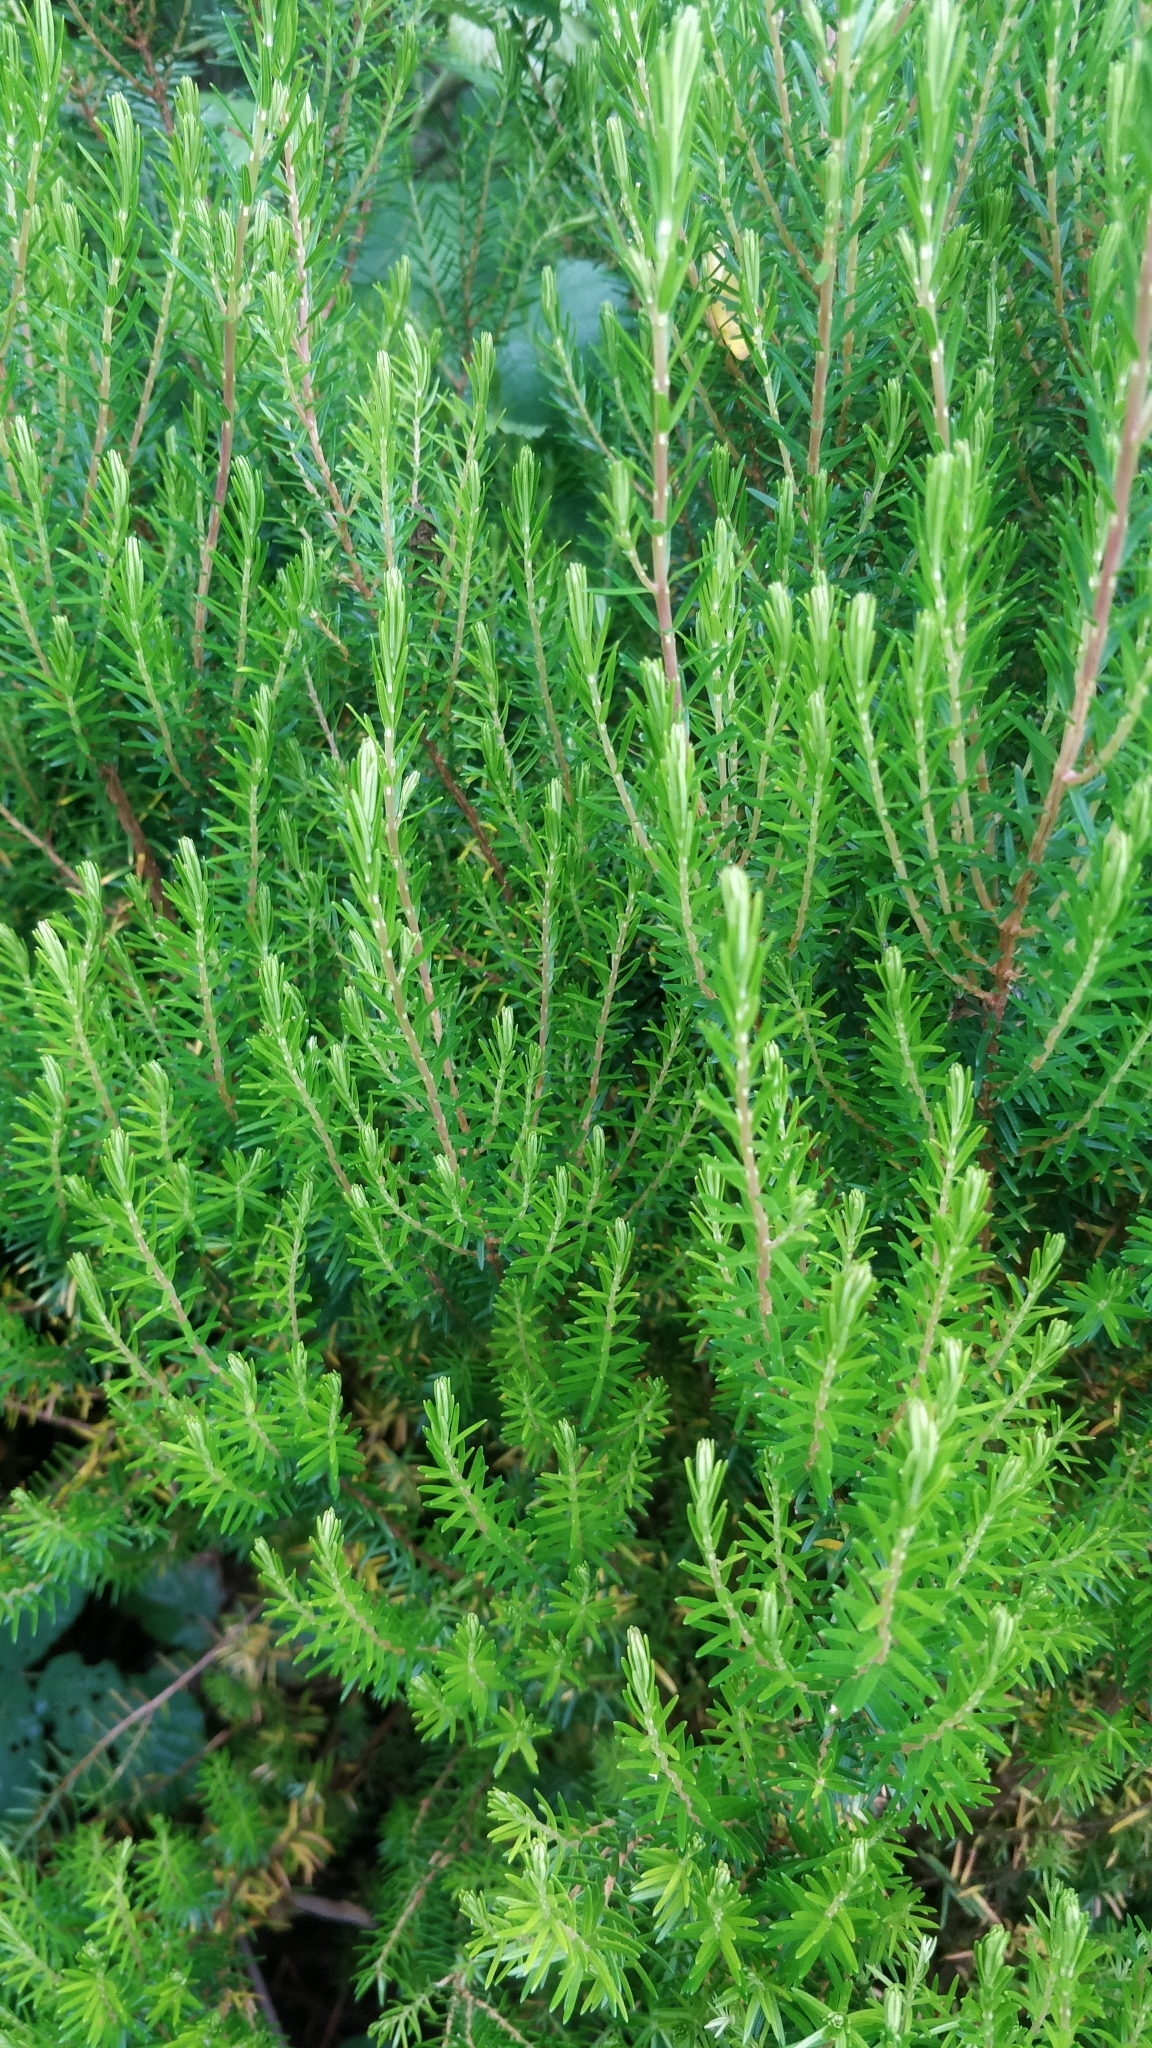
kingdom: Plantae
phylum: Tracheophyta
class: Magnoliopsida
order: Ericales
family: Ericaceae
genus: Erica
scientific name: Erica platycodon
